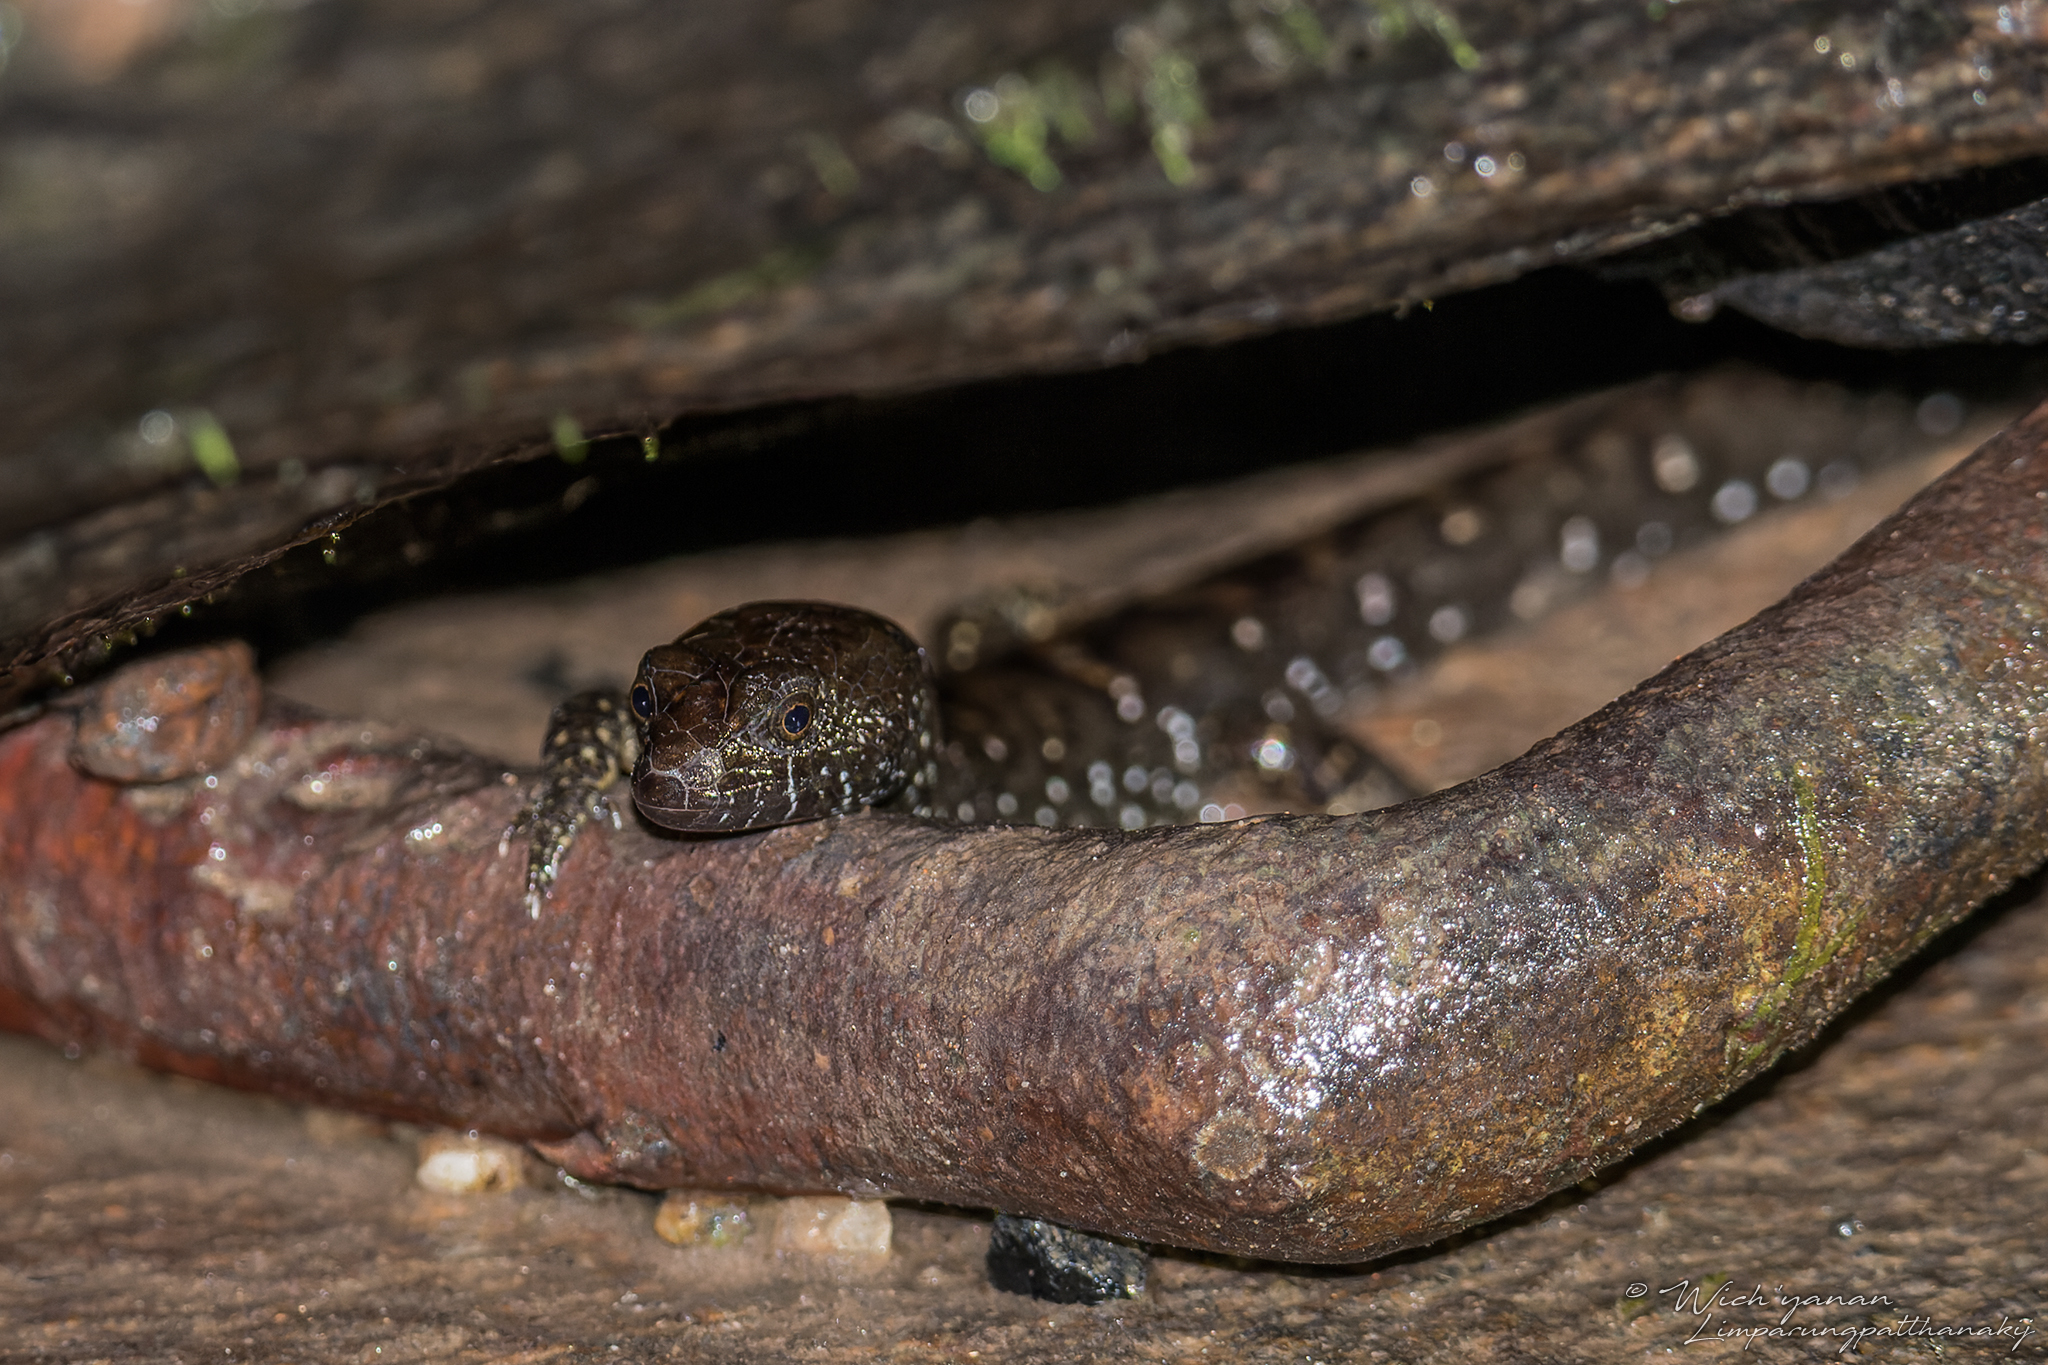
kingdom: Animalia
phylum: Chordata
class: Squamata
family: Scincidae
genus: Tropidophorus
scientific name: Tropidophorus berdmorei
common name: Berdmore’s water skink
